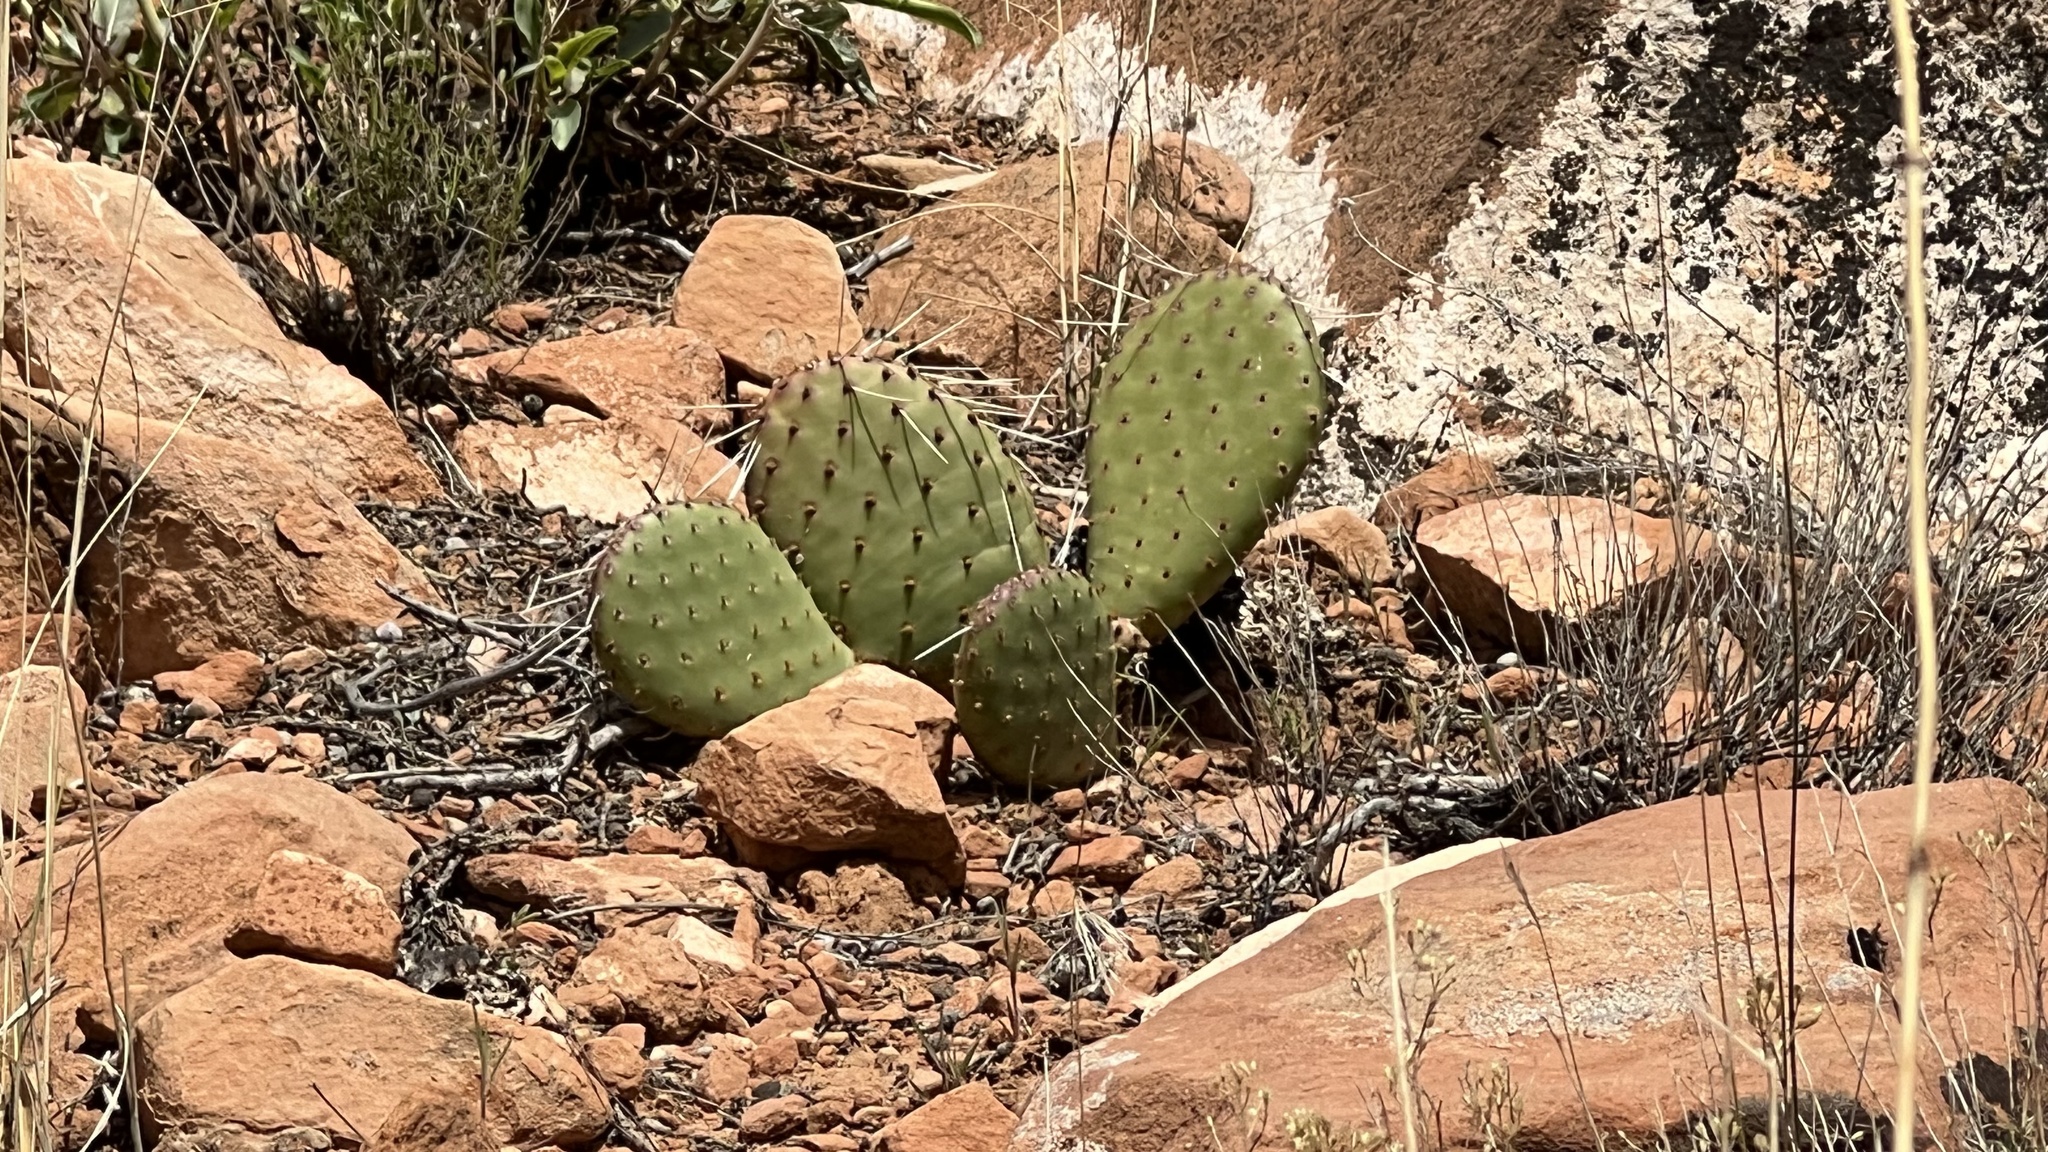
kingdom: Plantae
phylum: Tracheophyta
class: Magnoliopsida
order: Caryophyllales
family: Cactaceae
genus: Opuntia
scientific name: Opuntia aurea
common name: Golden prickly-pear
